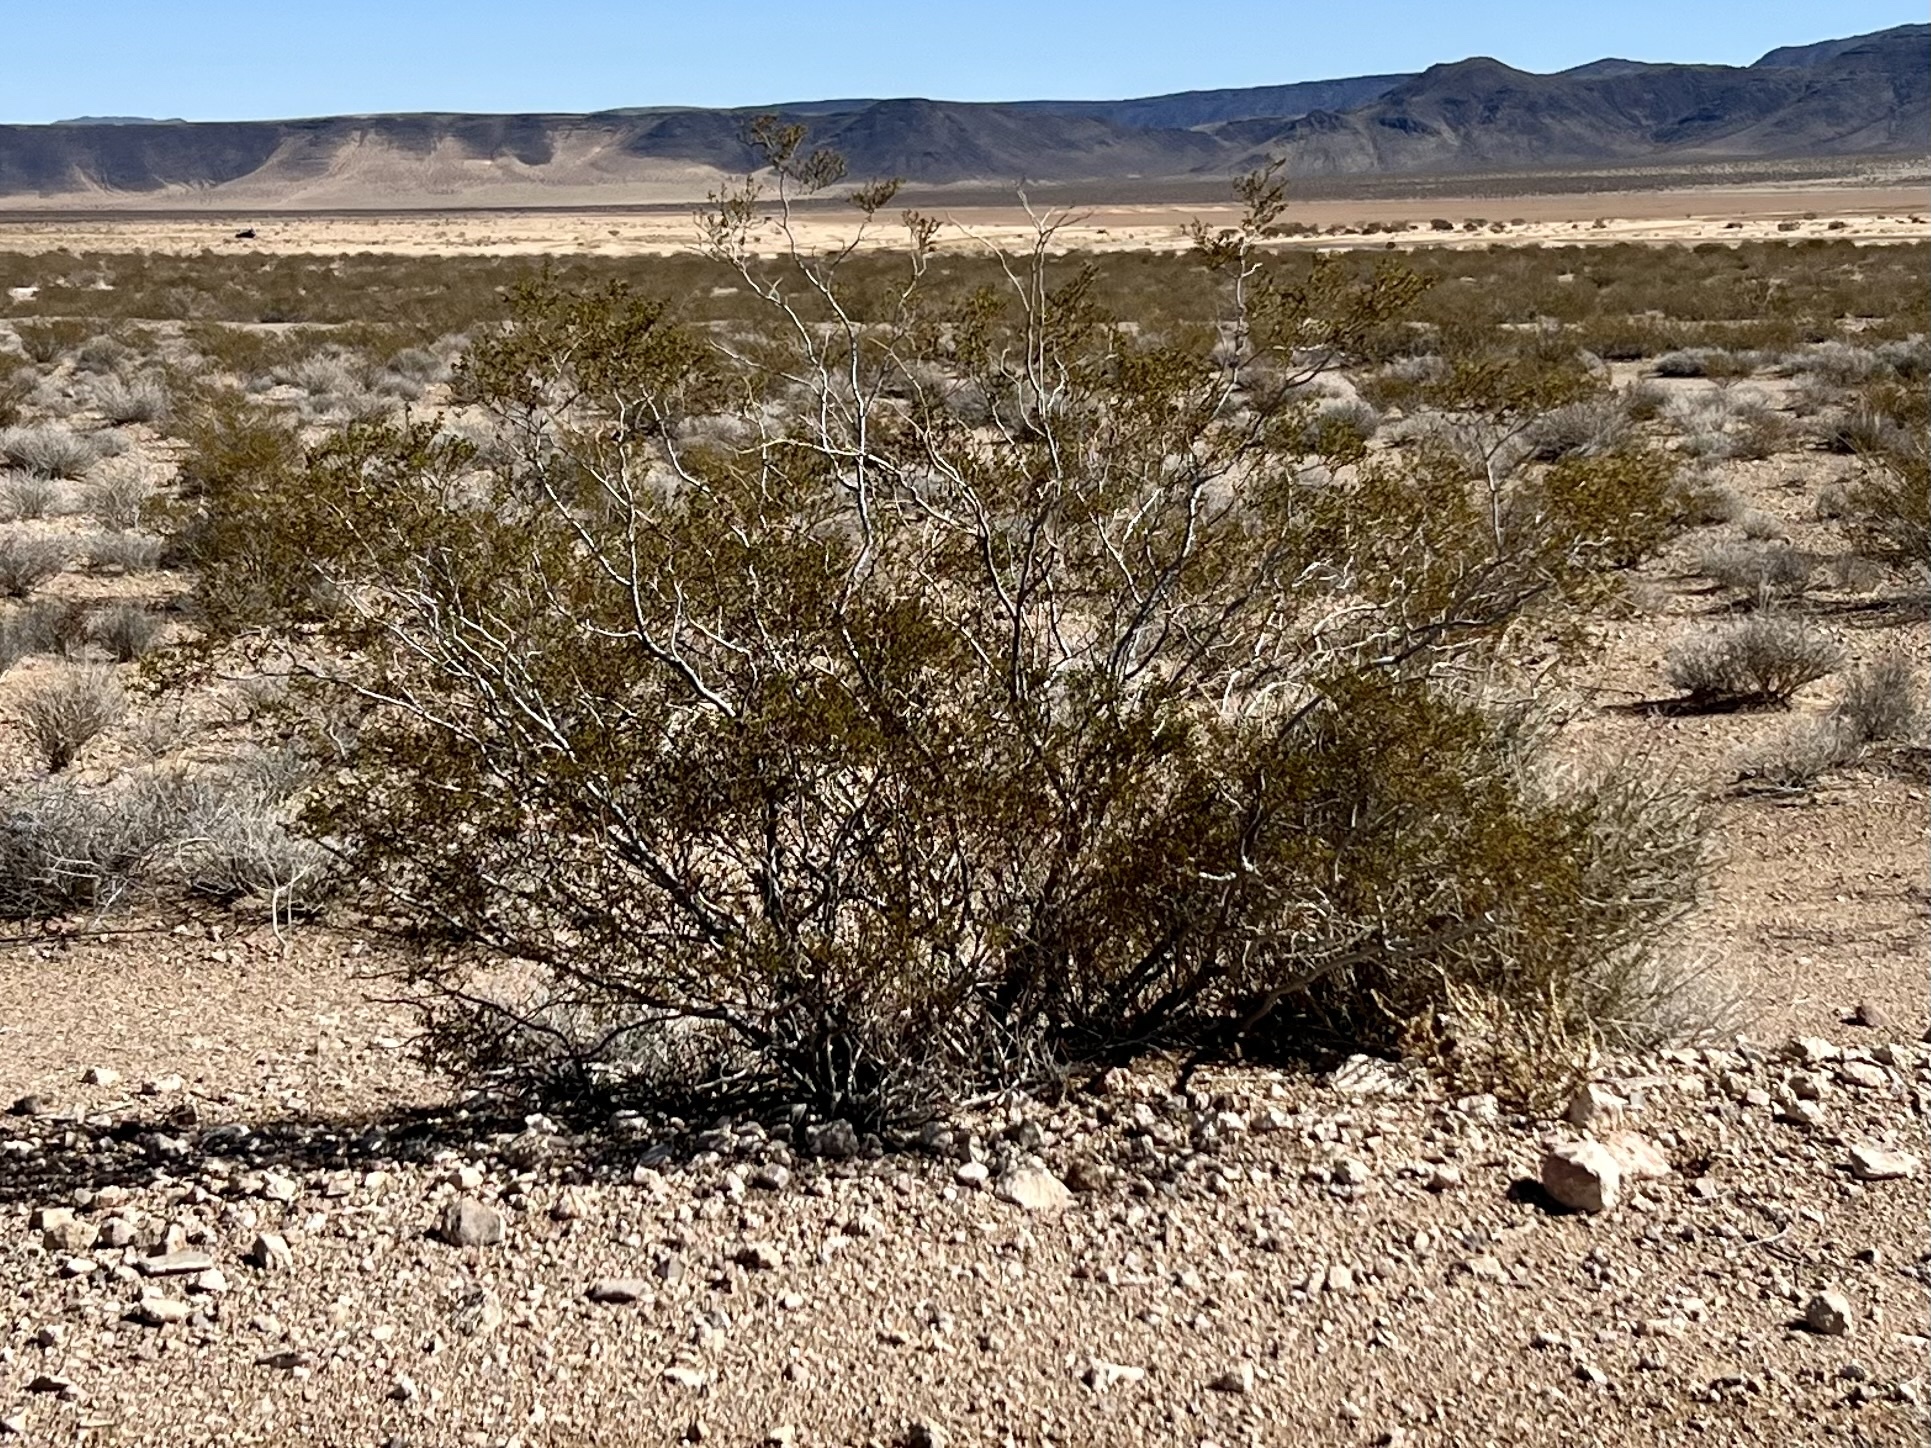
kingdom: Plantae
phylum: Tracheophyta
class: Magnoliopsida
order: Zygophyllales
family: Zygophyllaceae
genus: Larrea
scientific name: Larrea tridentata
